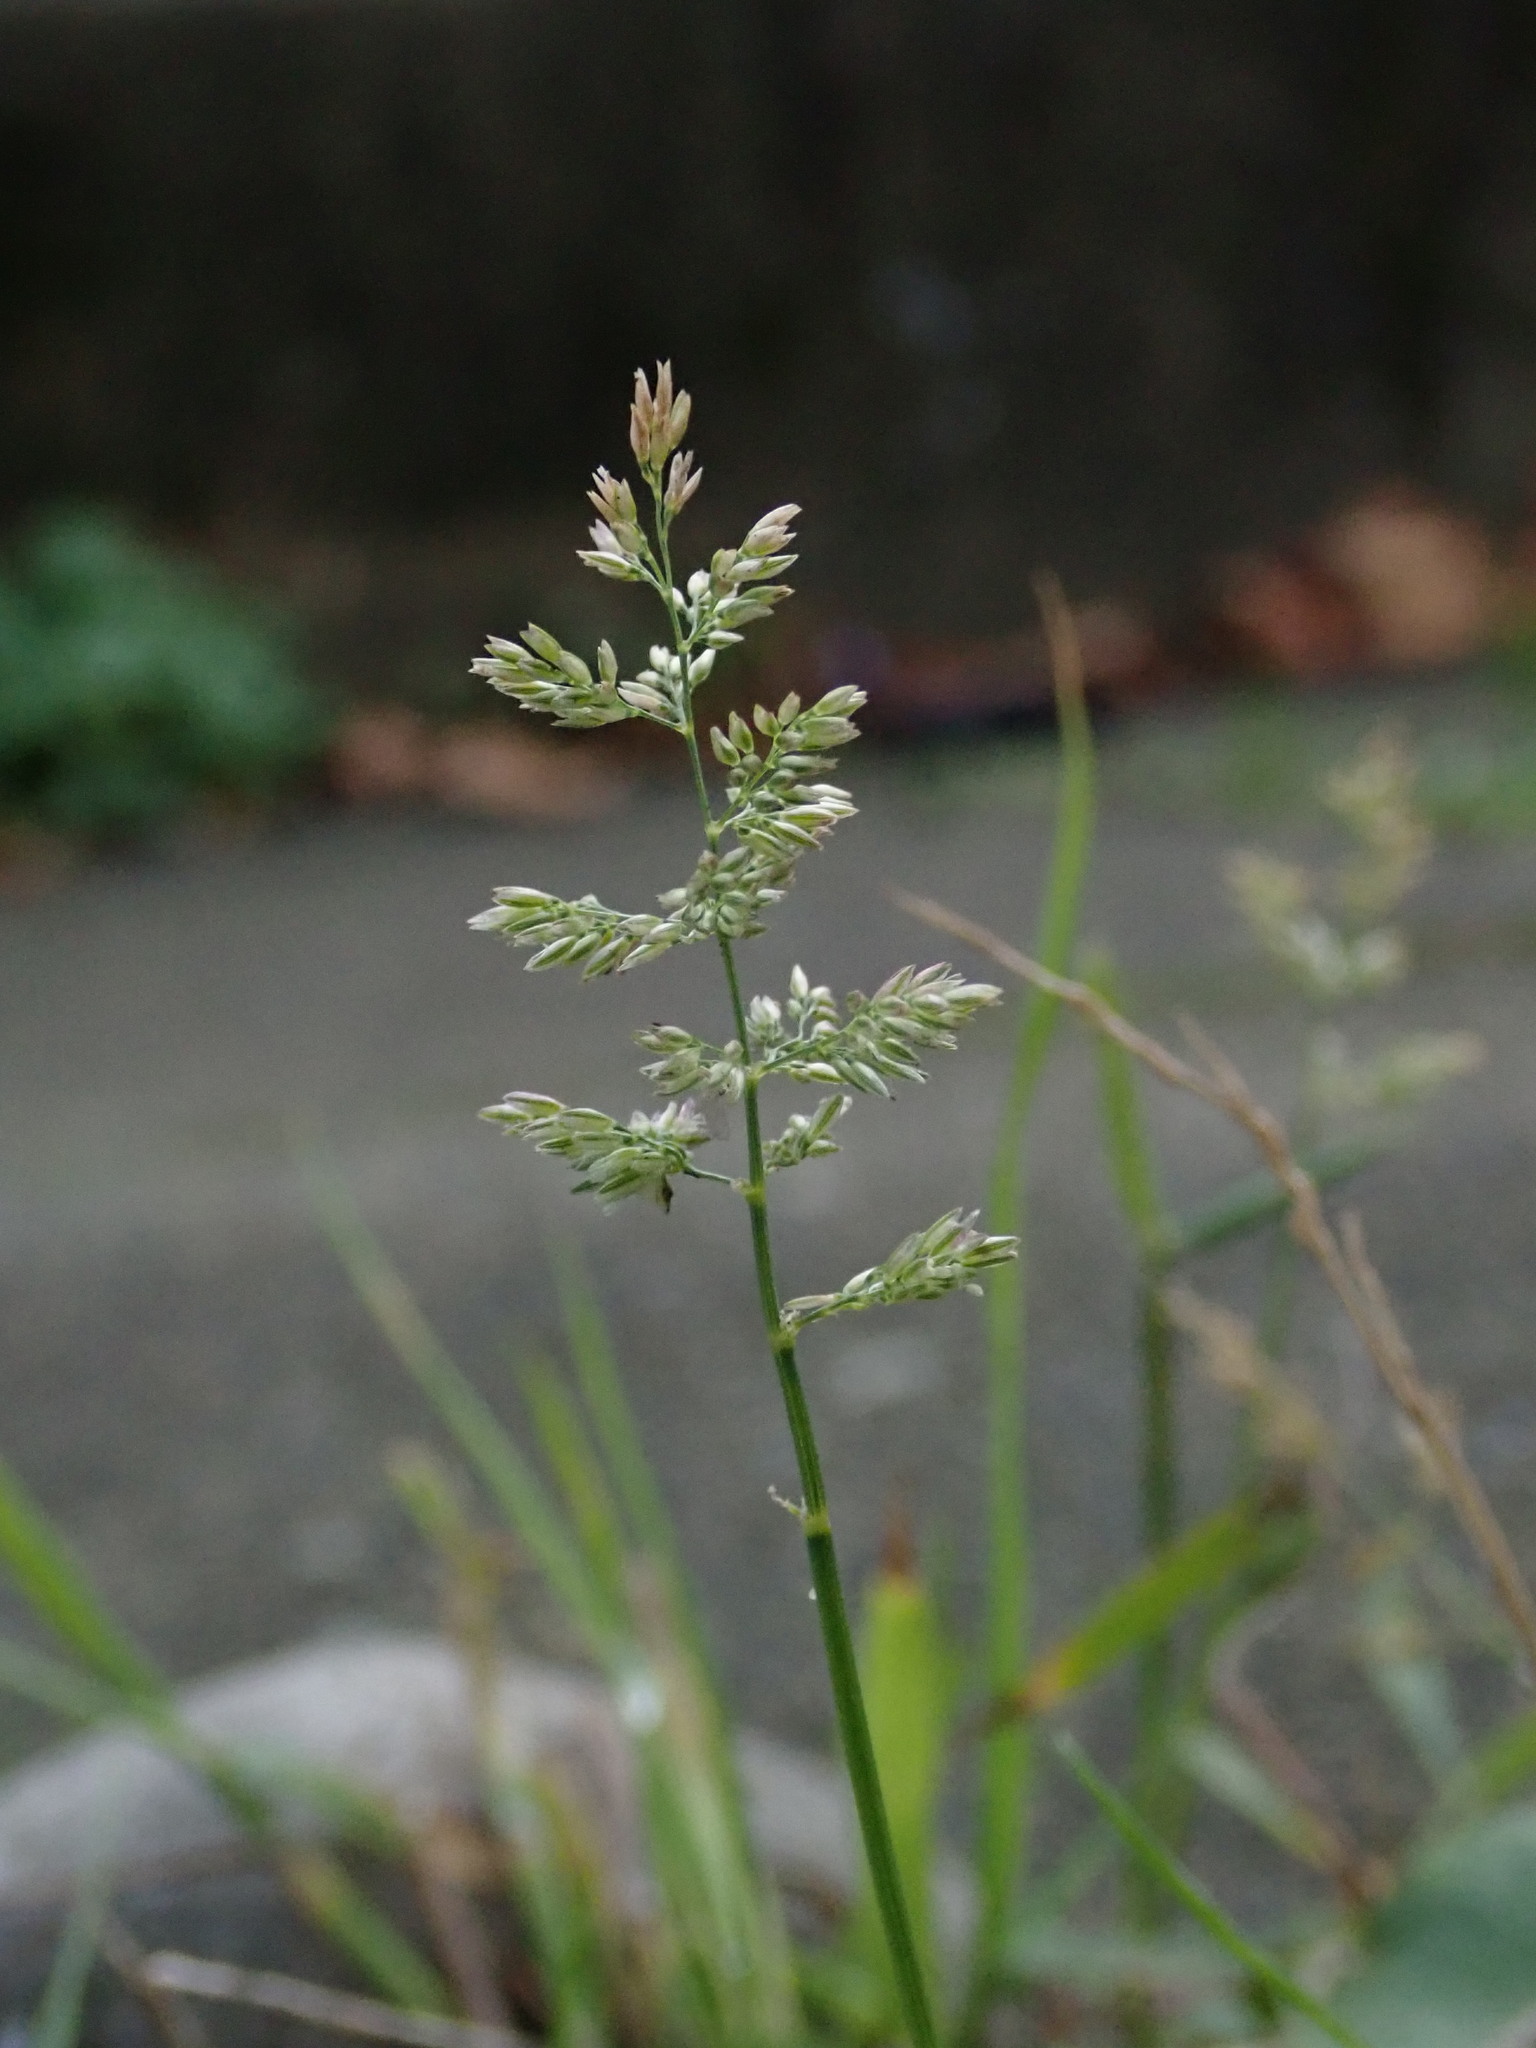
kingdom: Plantae
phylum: Tracheophyta
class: Liliopsida
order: Poales
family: Poaceae
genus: Polypogon
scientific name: Polypogon viridis
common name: Water bent
